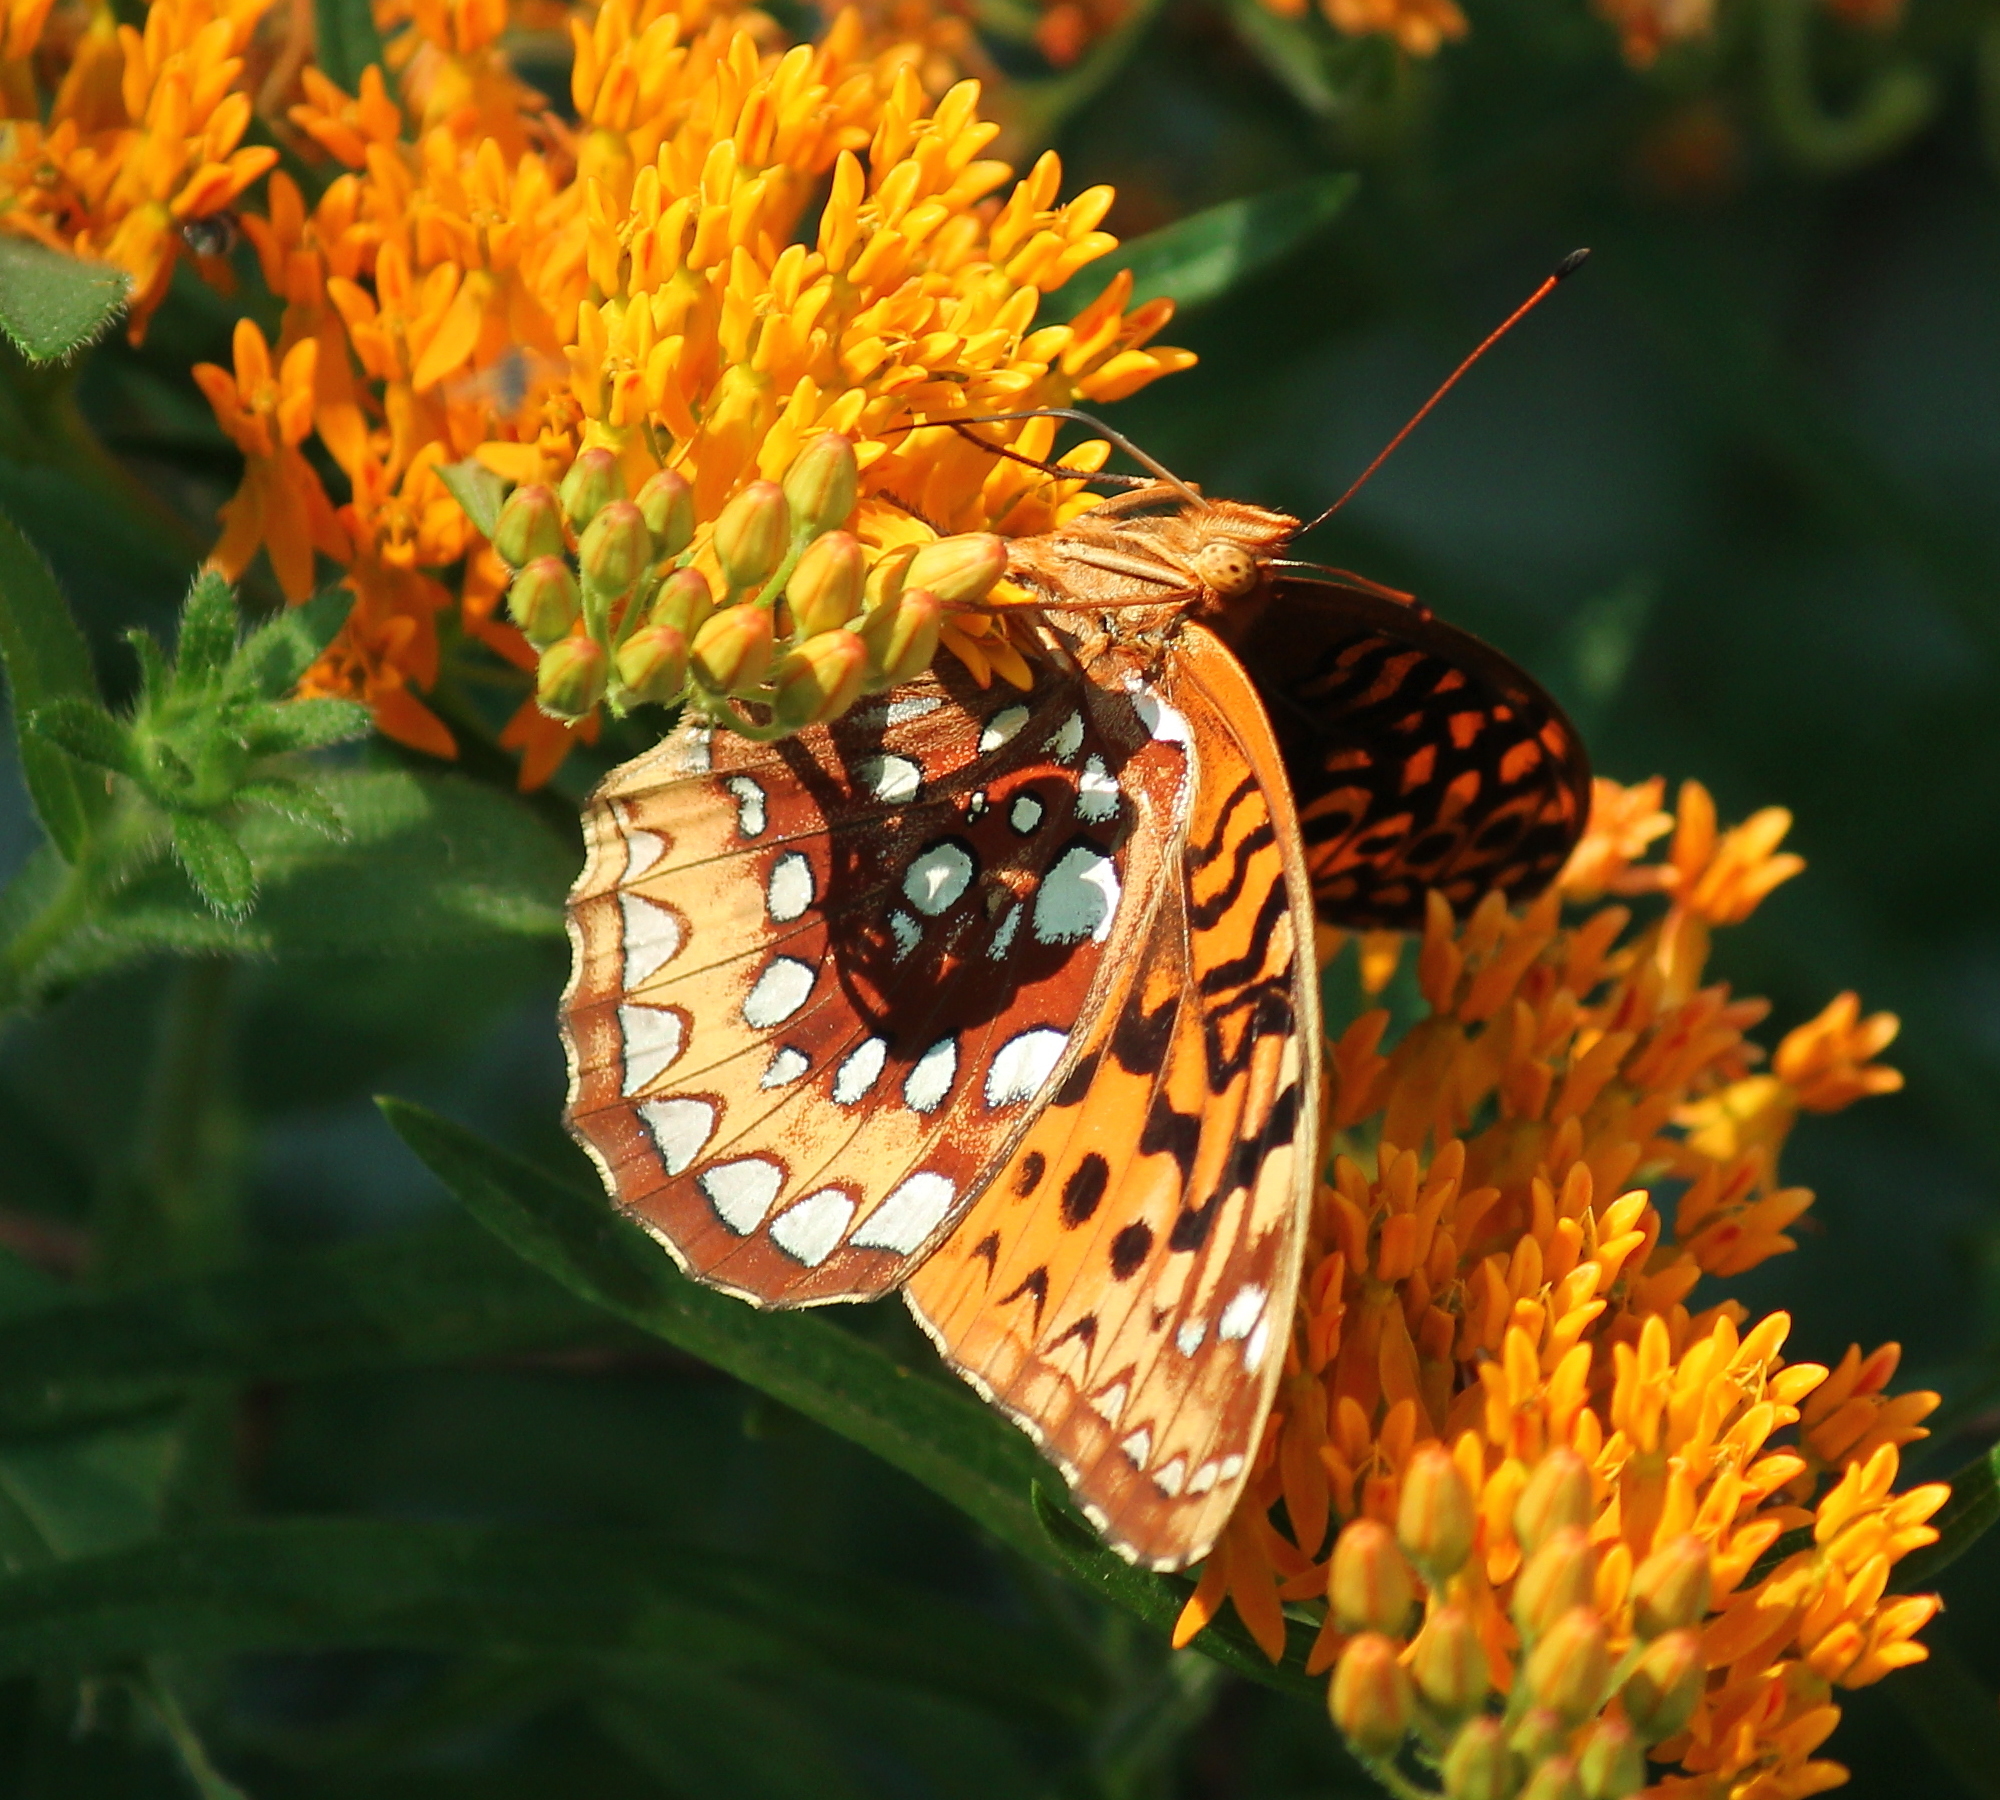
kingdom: Animalia
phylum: Arthropoda
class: Insecta
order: Lepidoptera
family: Nymphalidae
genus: Speyeria
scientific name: Speyeria cybele
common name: Great spangled fritillary
